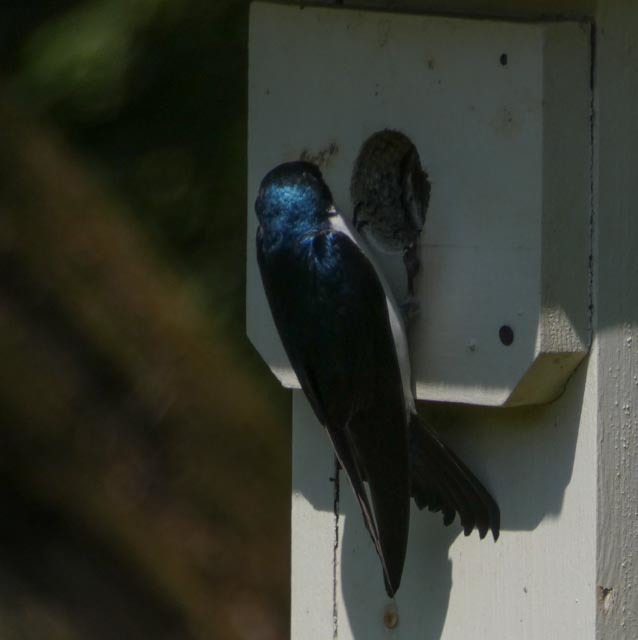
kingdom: Animalia
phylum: Chordata
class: Aves
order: Passeriformes
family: Hirundinidae
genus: Tachycineta
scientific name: Tachycineta bicolor
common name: Tree swallow
